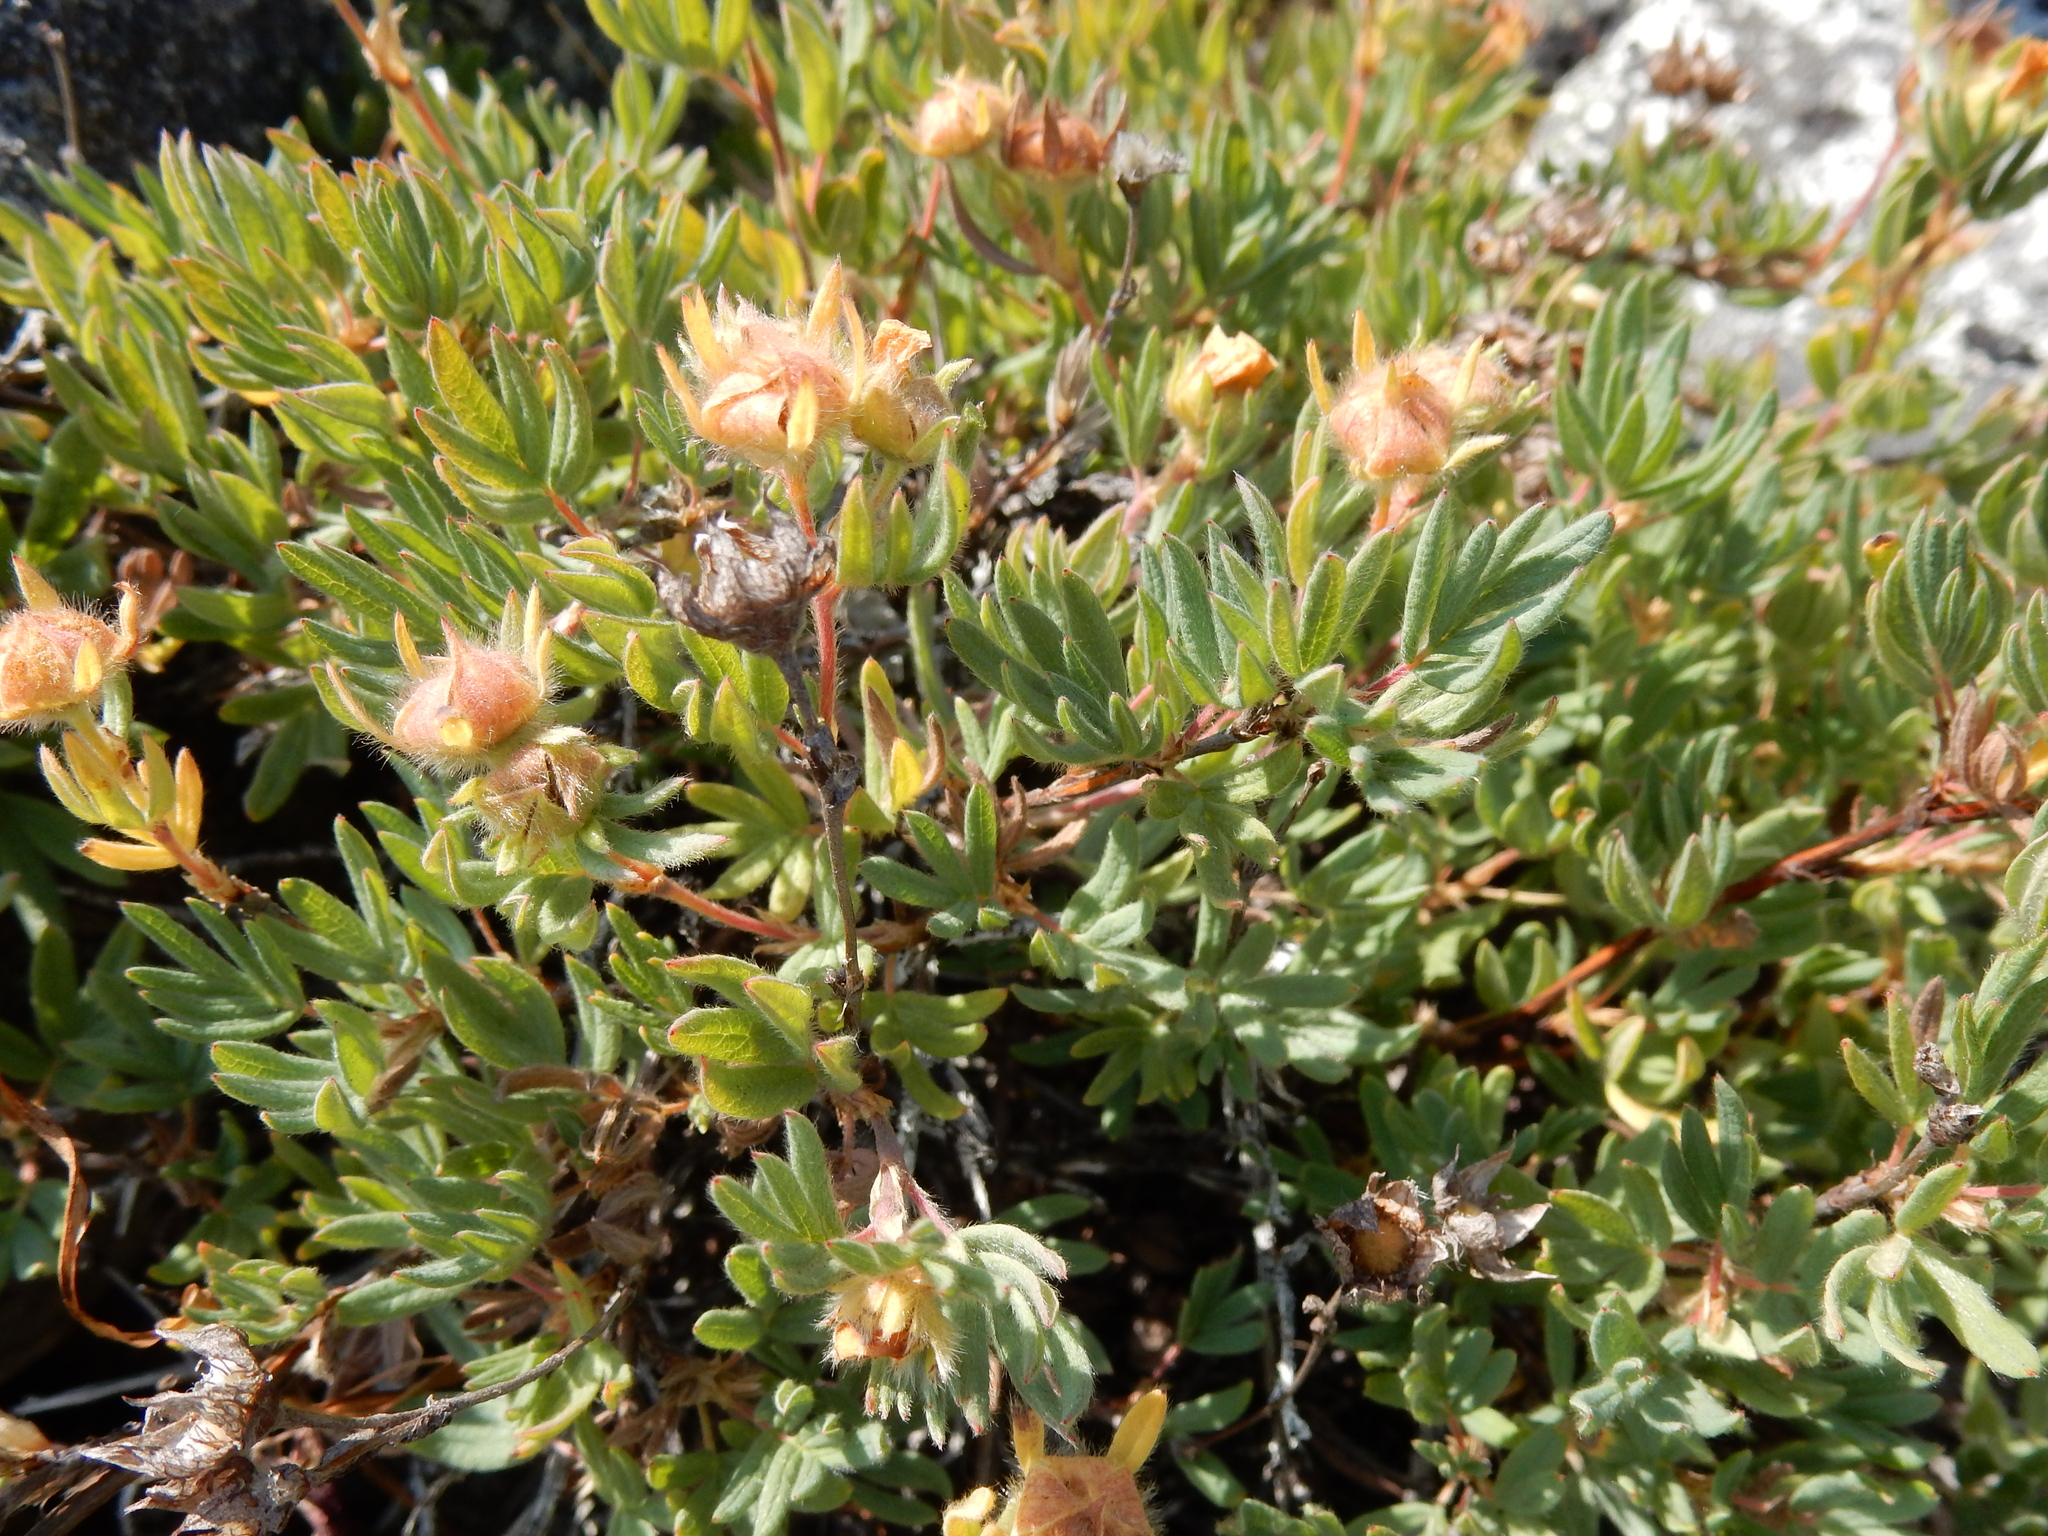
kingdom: Plantae
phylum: Tracheophyta
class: Magnoliopsida
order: Rosales
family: Rosaceae
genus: Dasiphora
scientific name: Dasiphora fruticosa
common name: Shrubby cinquefoil
